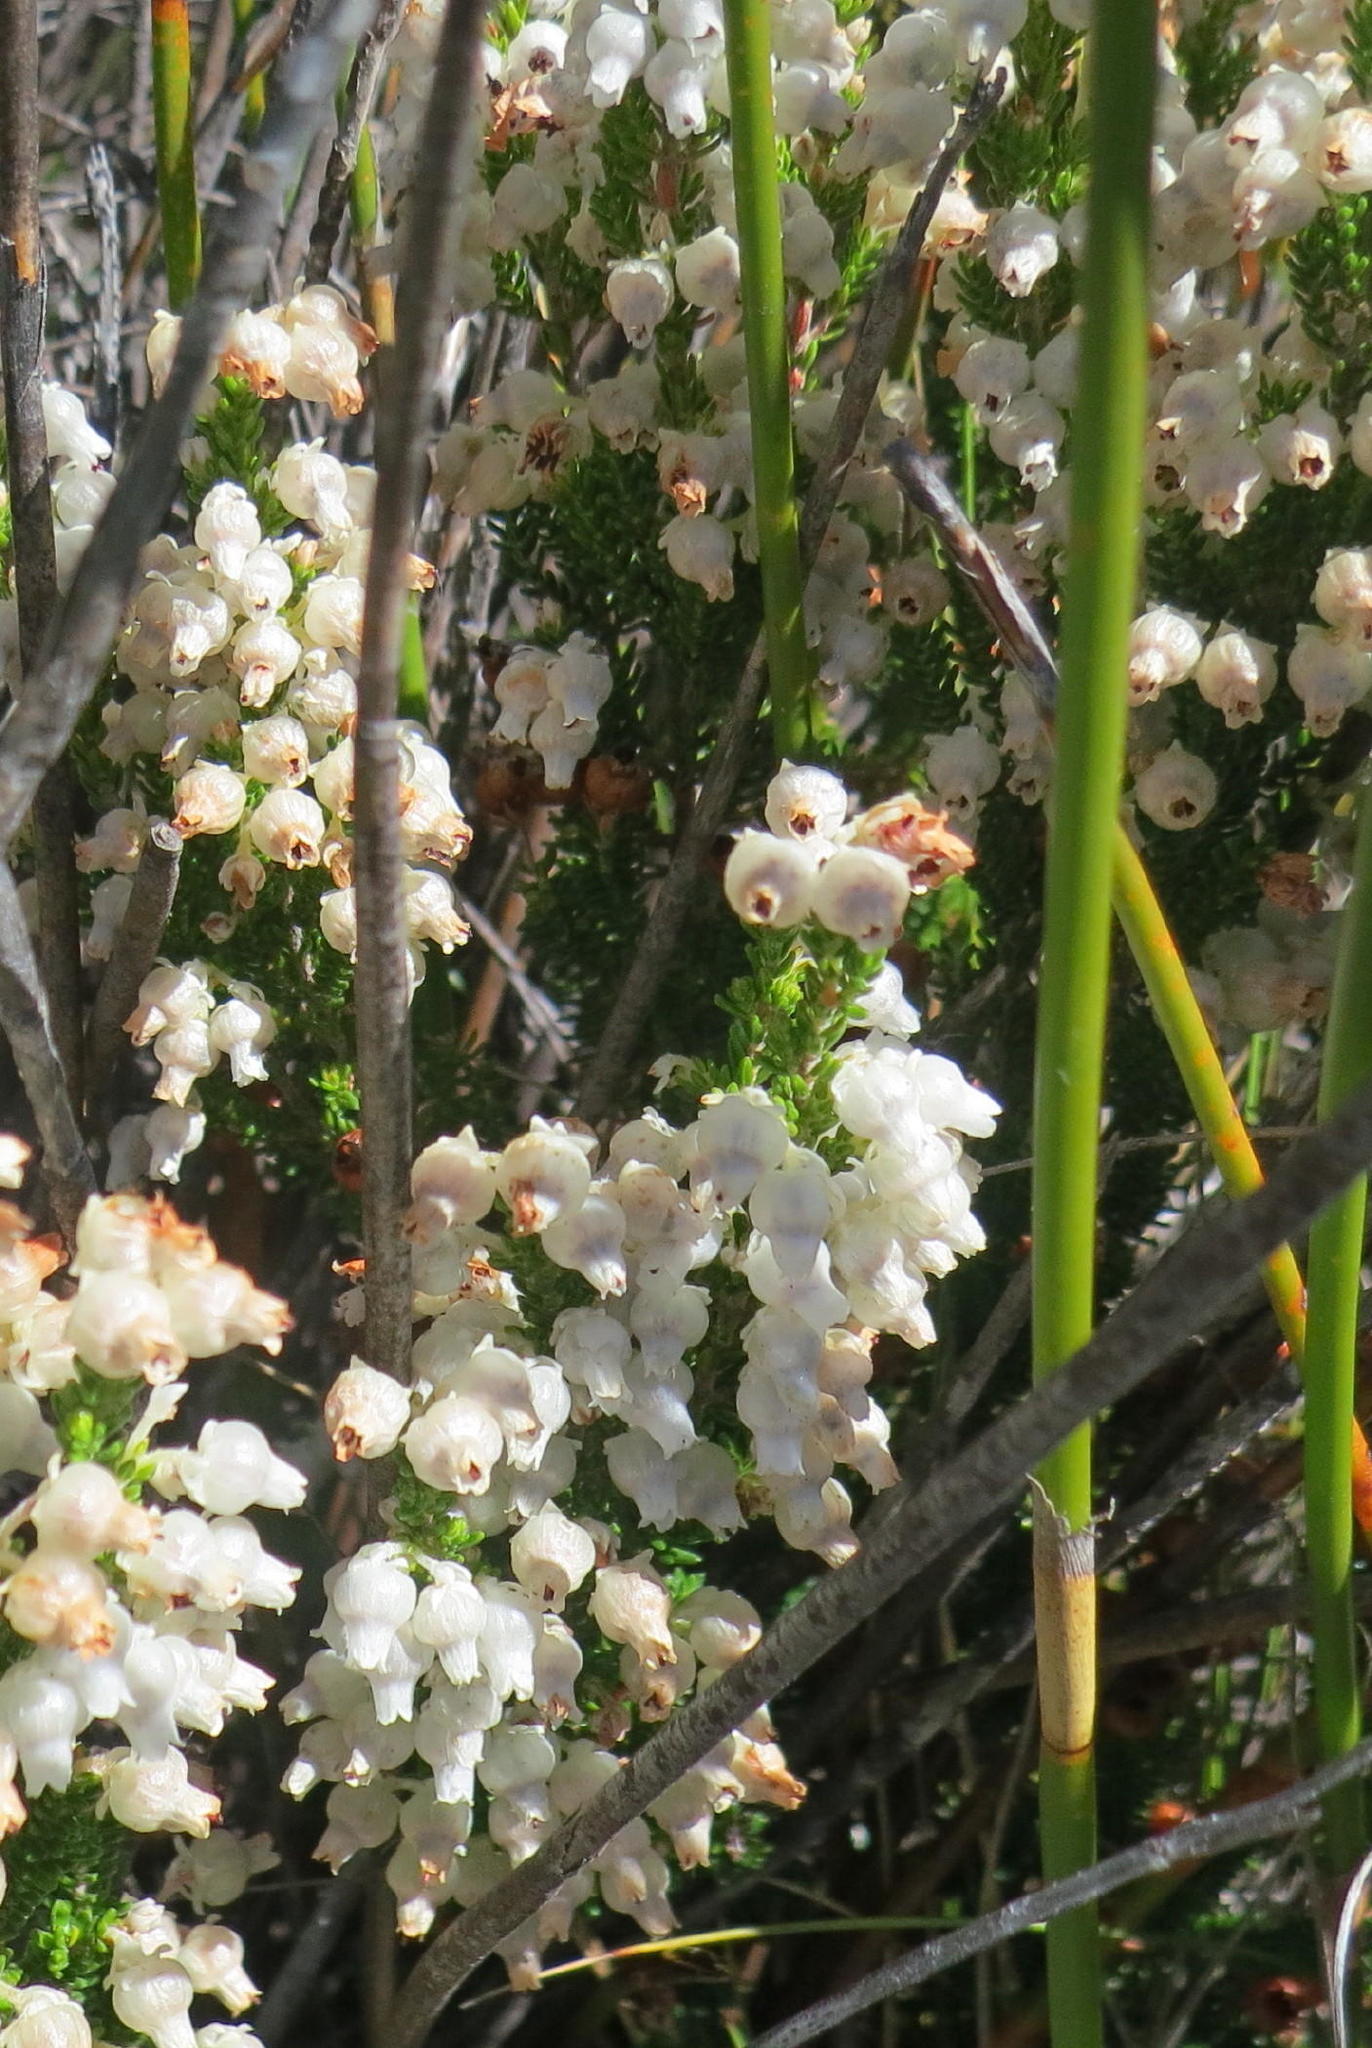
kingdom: Plantae
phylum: Tracheophyta
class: Magnoliopsida
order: Ericales
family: Ericaceae
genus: Erica
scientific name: Erica glomiflora
